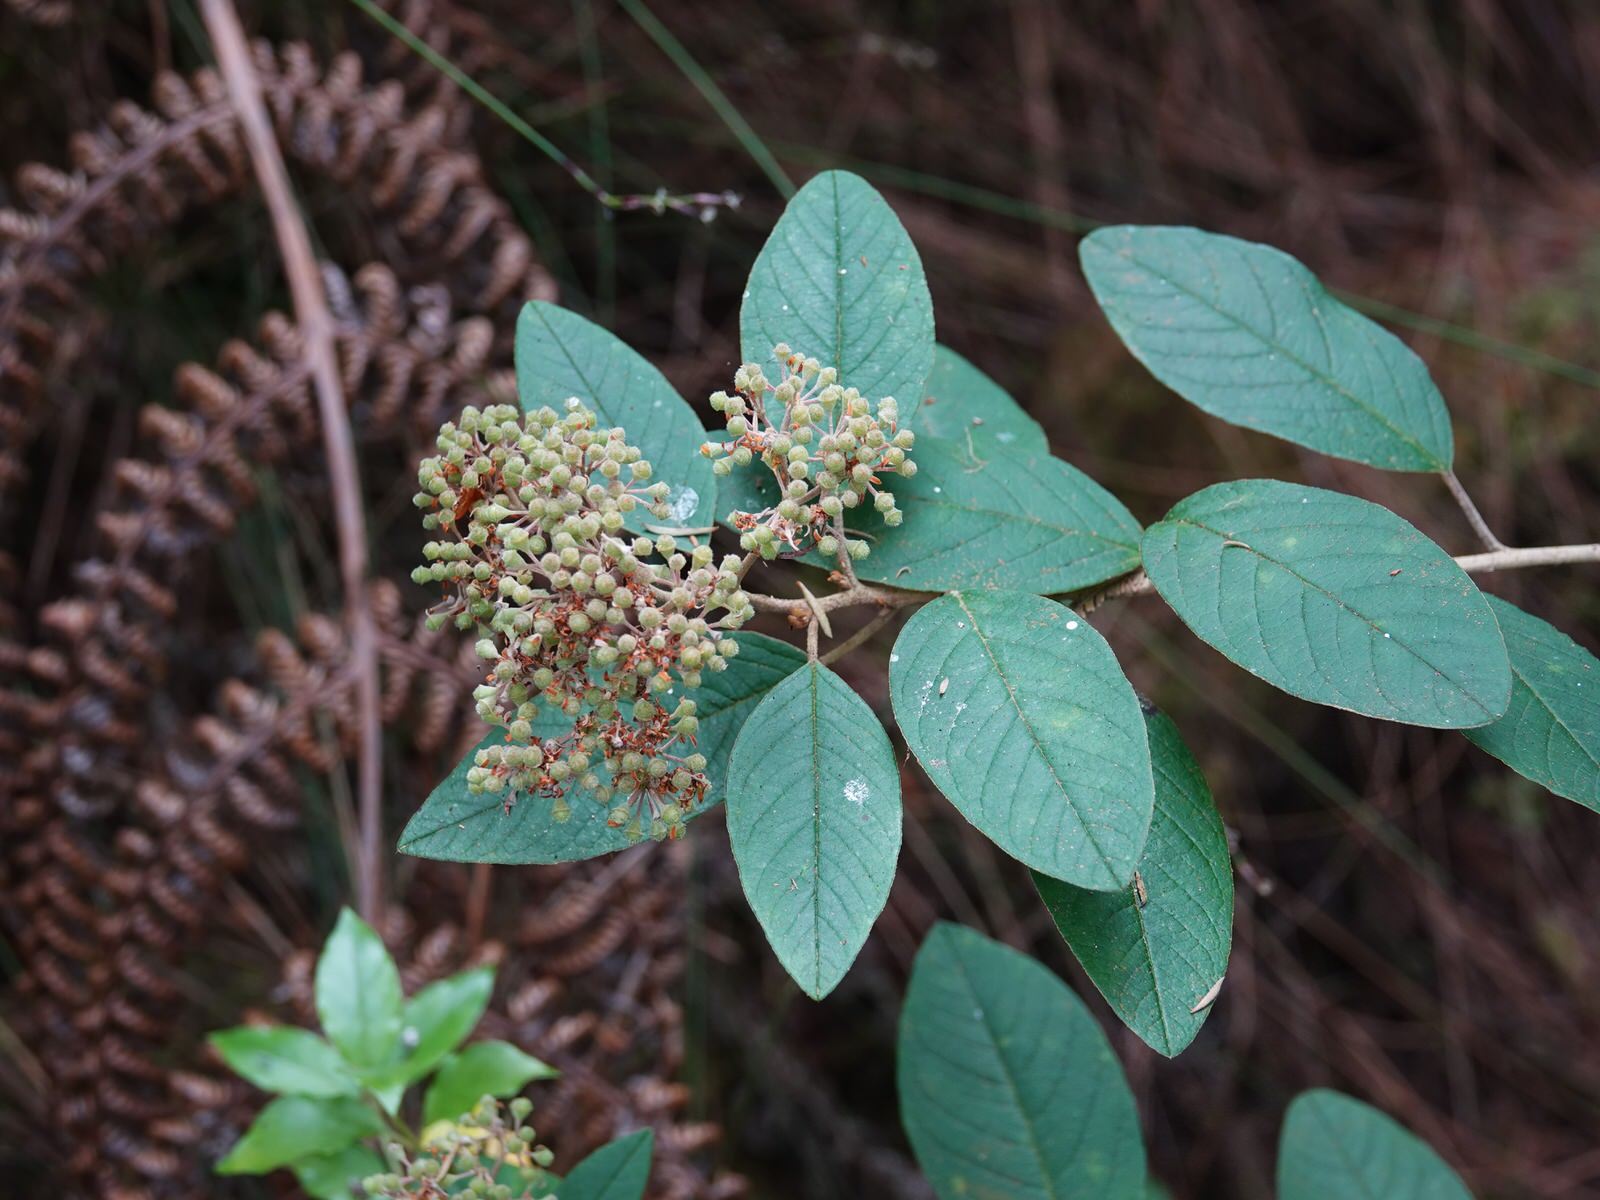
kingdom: Plantae
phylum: Tracheophyta
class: Magnoliopsida
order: Rosales
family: Rhamnaceae
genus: Pomaderris
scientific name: Pomaderris kumeraho
